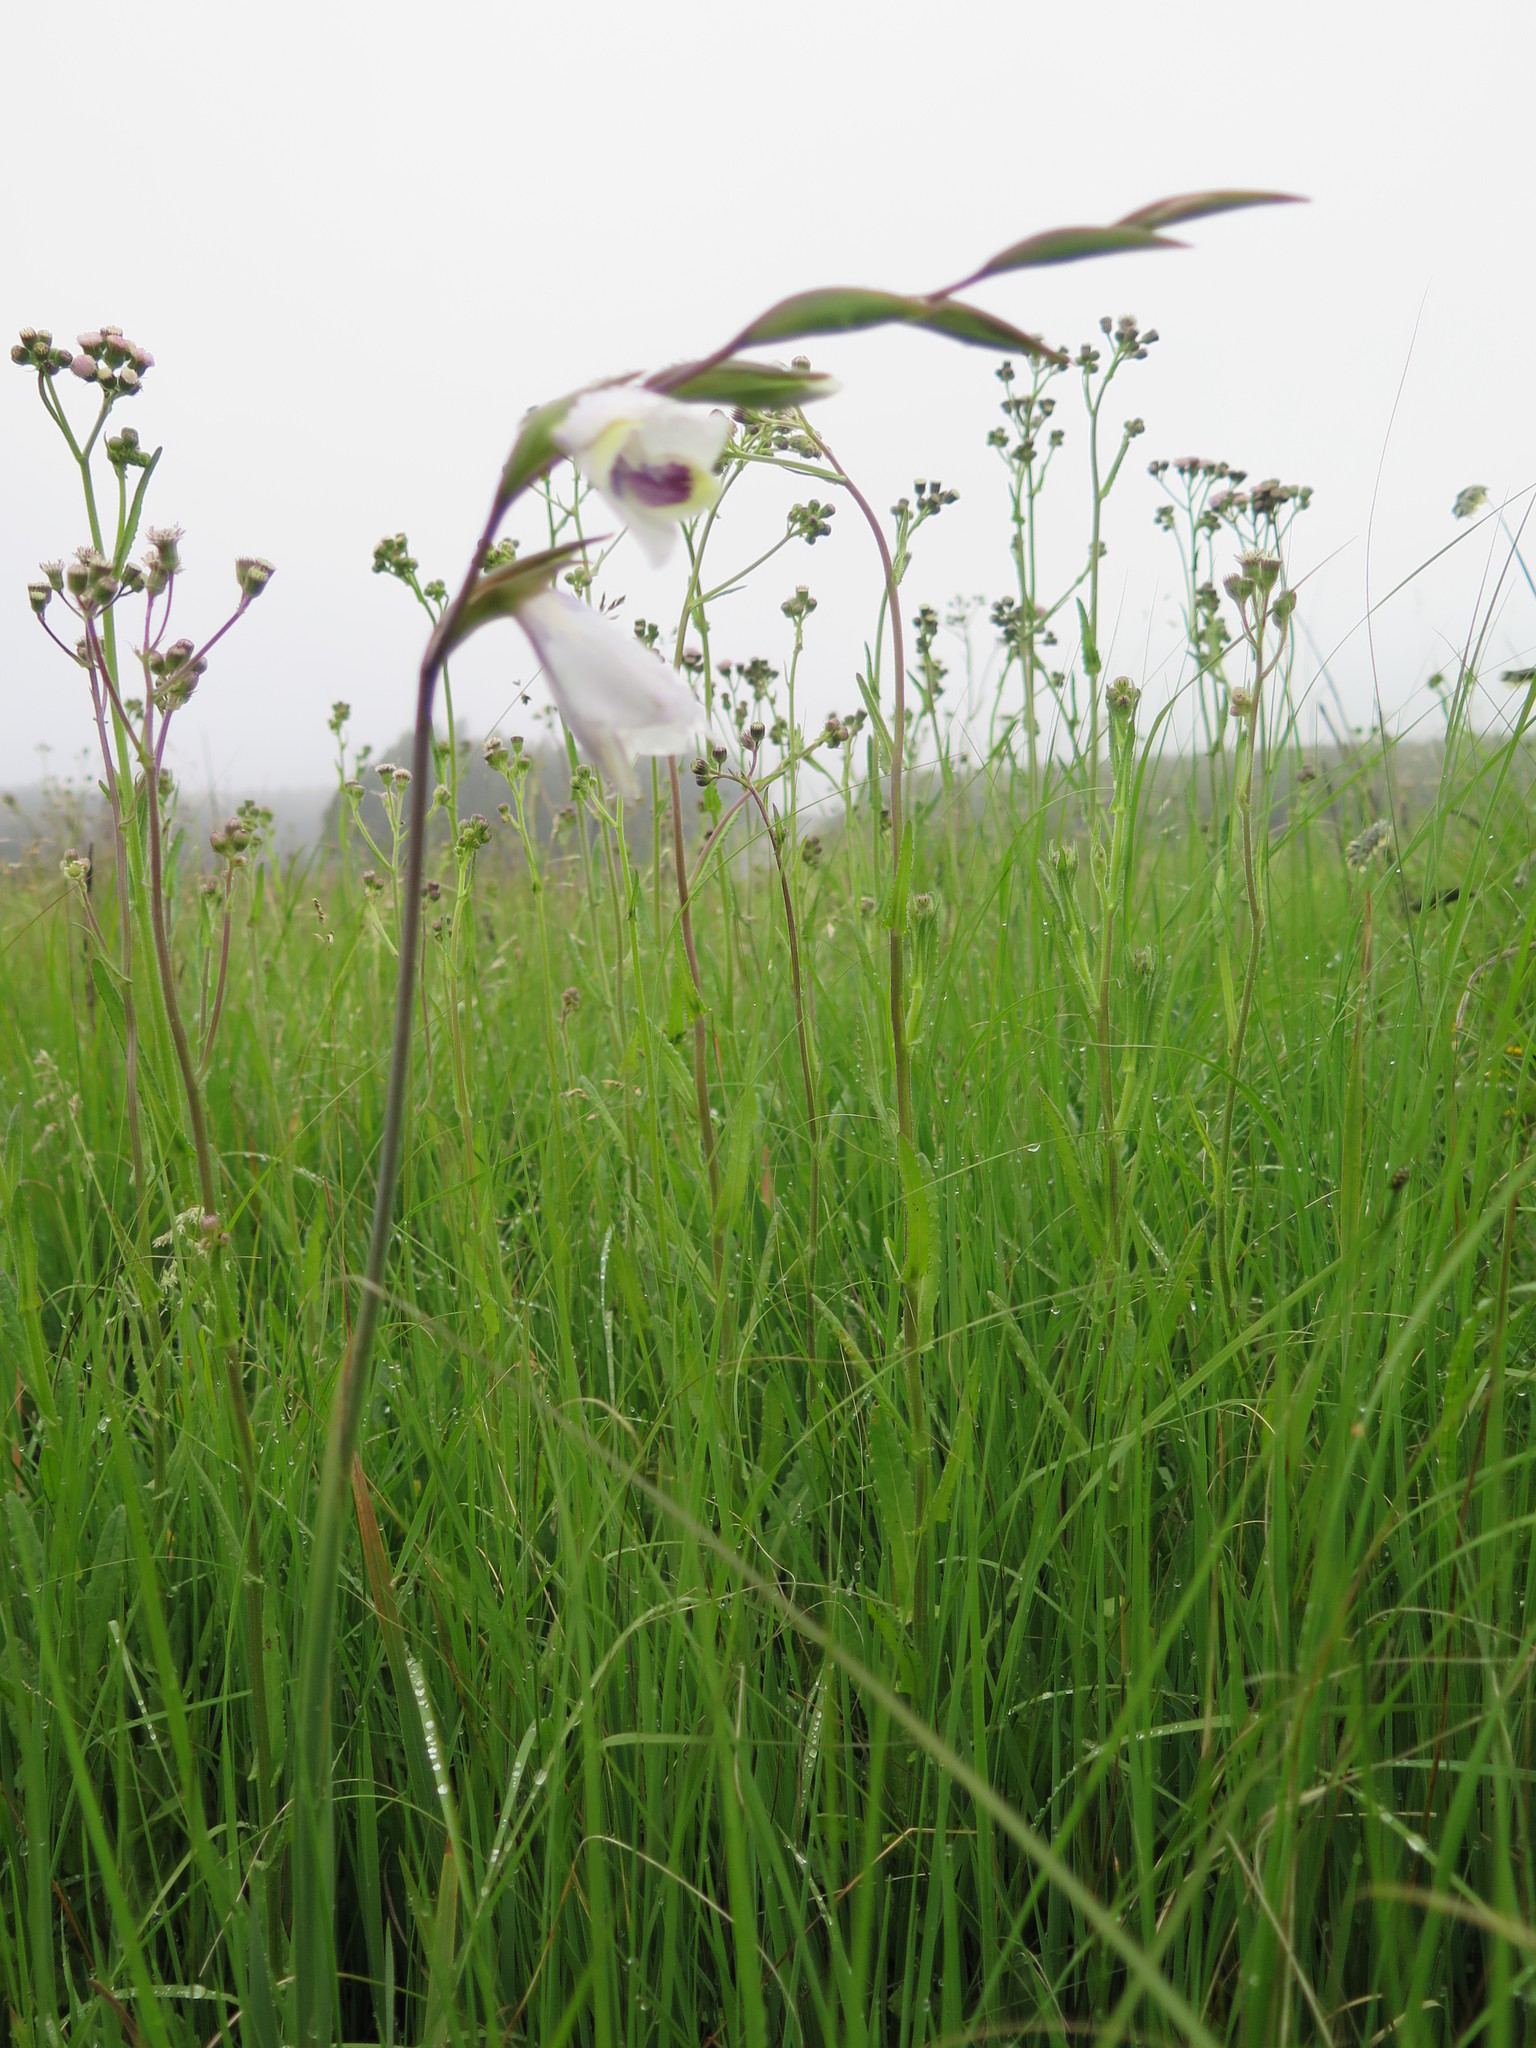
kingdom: Plantae
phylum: Tracheophyta
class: Liliopsida
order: Asparagales
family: Iridaceae
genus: Gladiolus
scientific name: Gladiolus papilio
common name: Goldblotch gladiolus
